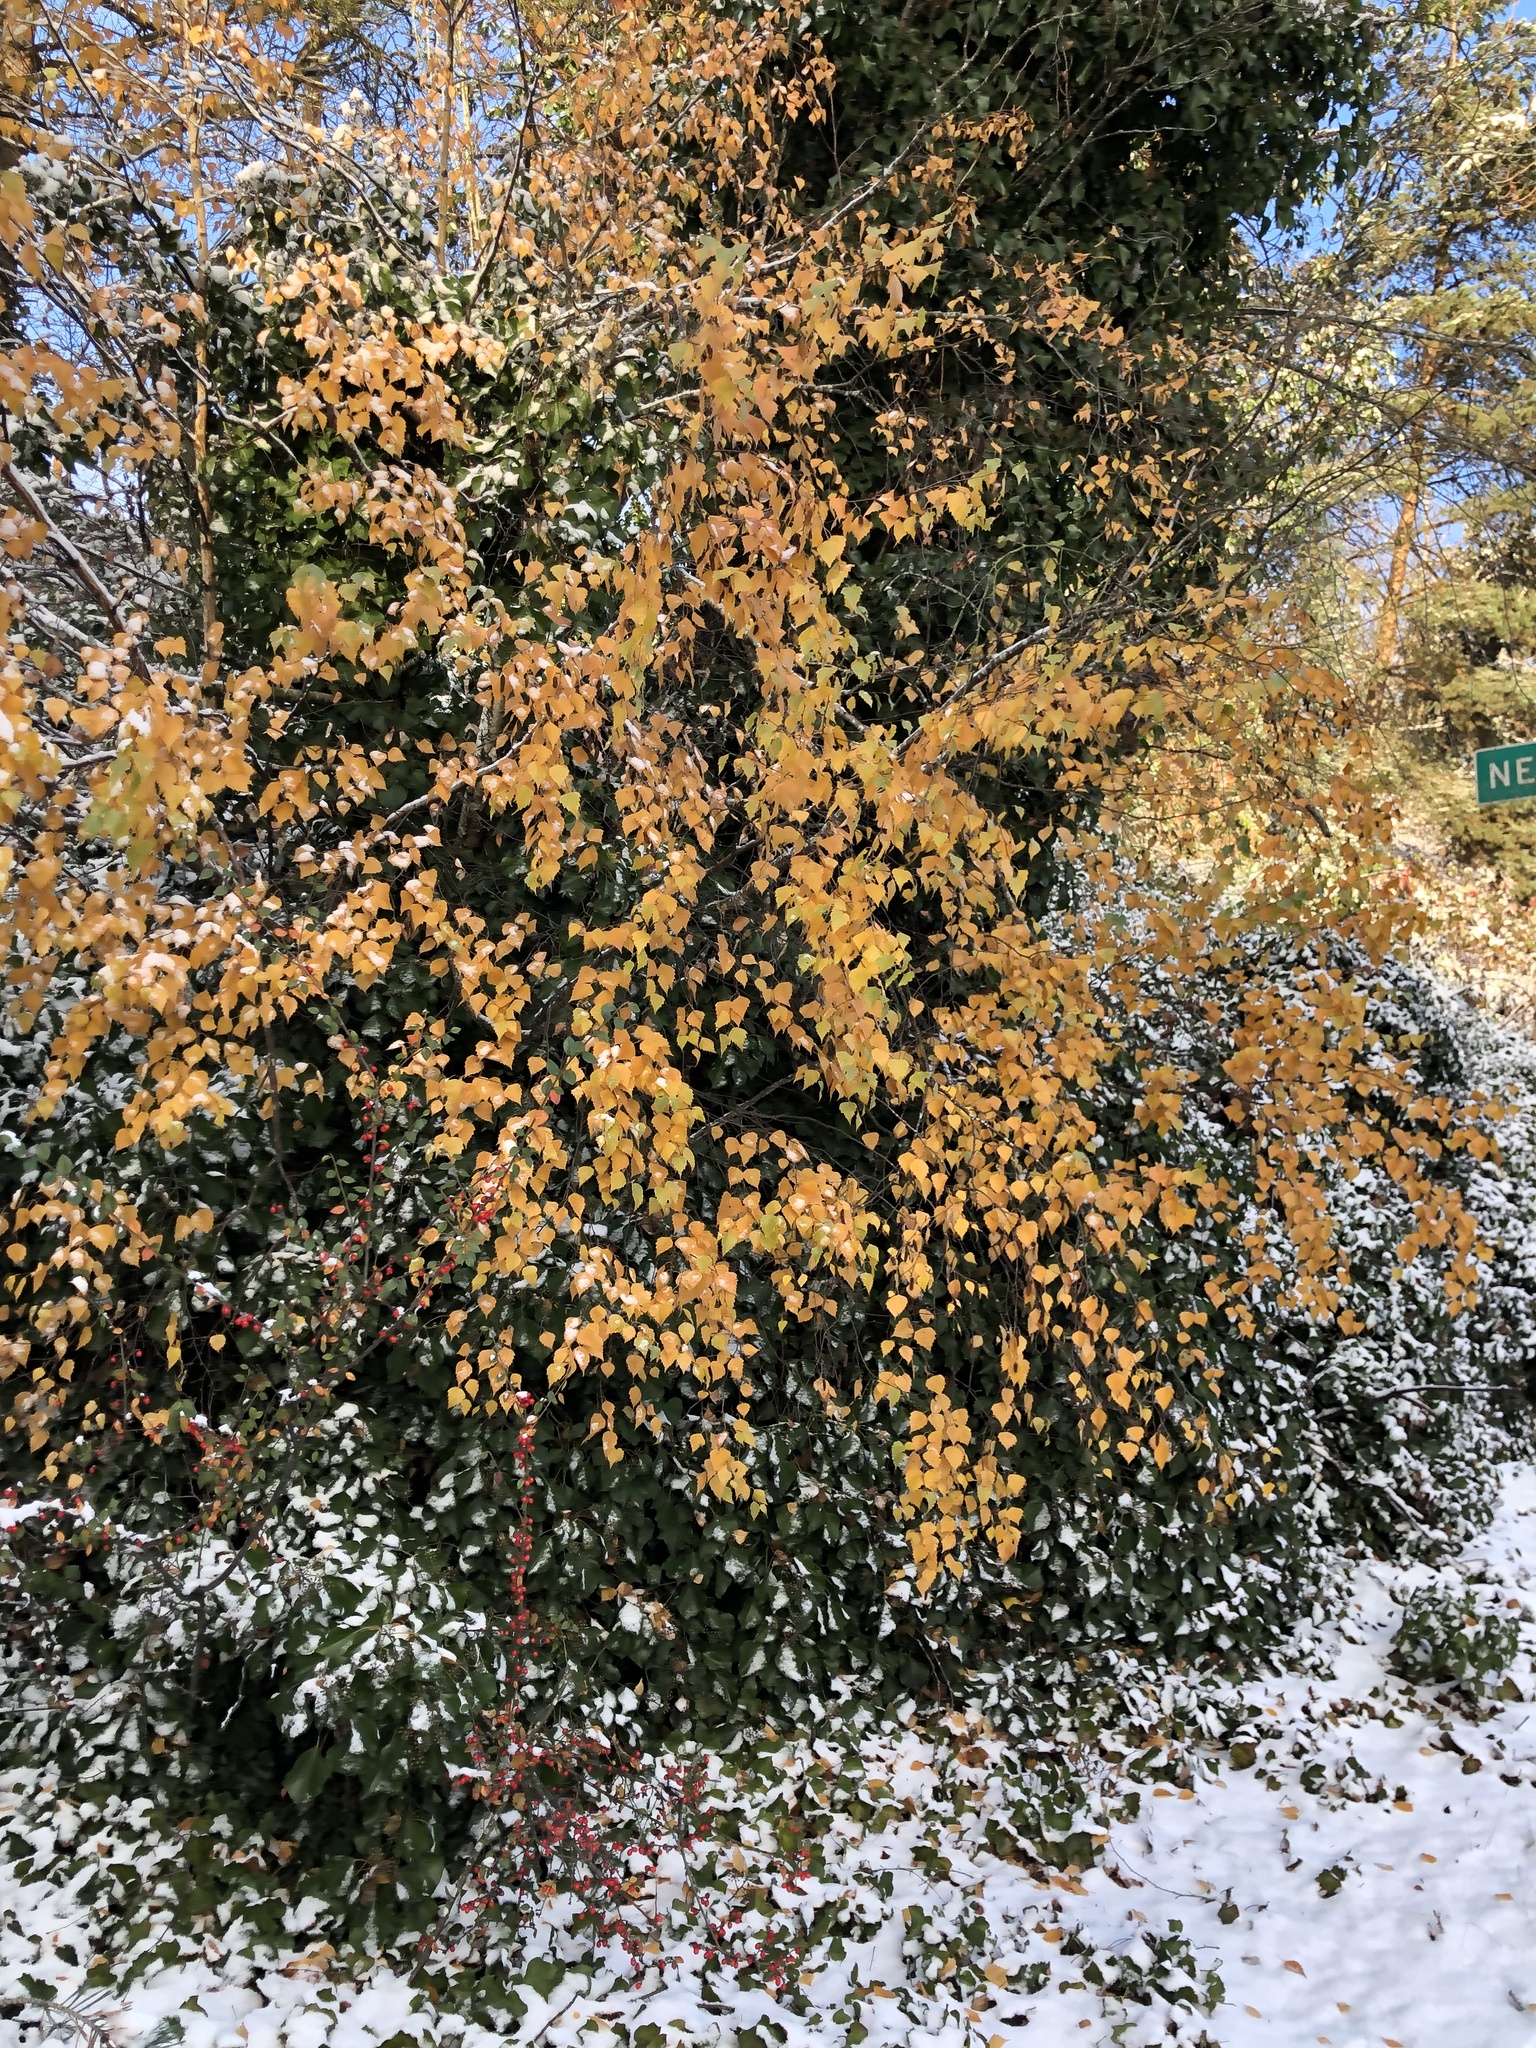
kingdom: Plantae
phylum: Tracheophyta
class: Magnoliopsida
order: Fagales
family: Betulaceae
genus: Betula
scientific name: Betula pendula
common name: Silver birch
